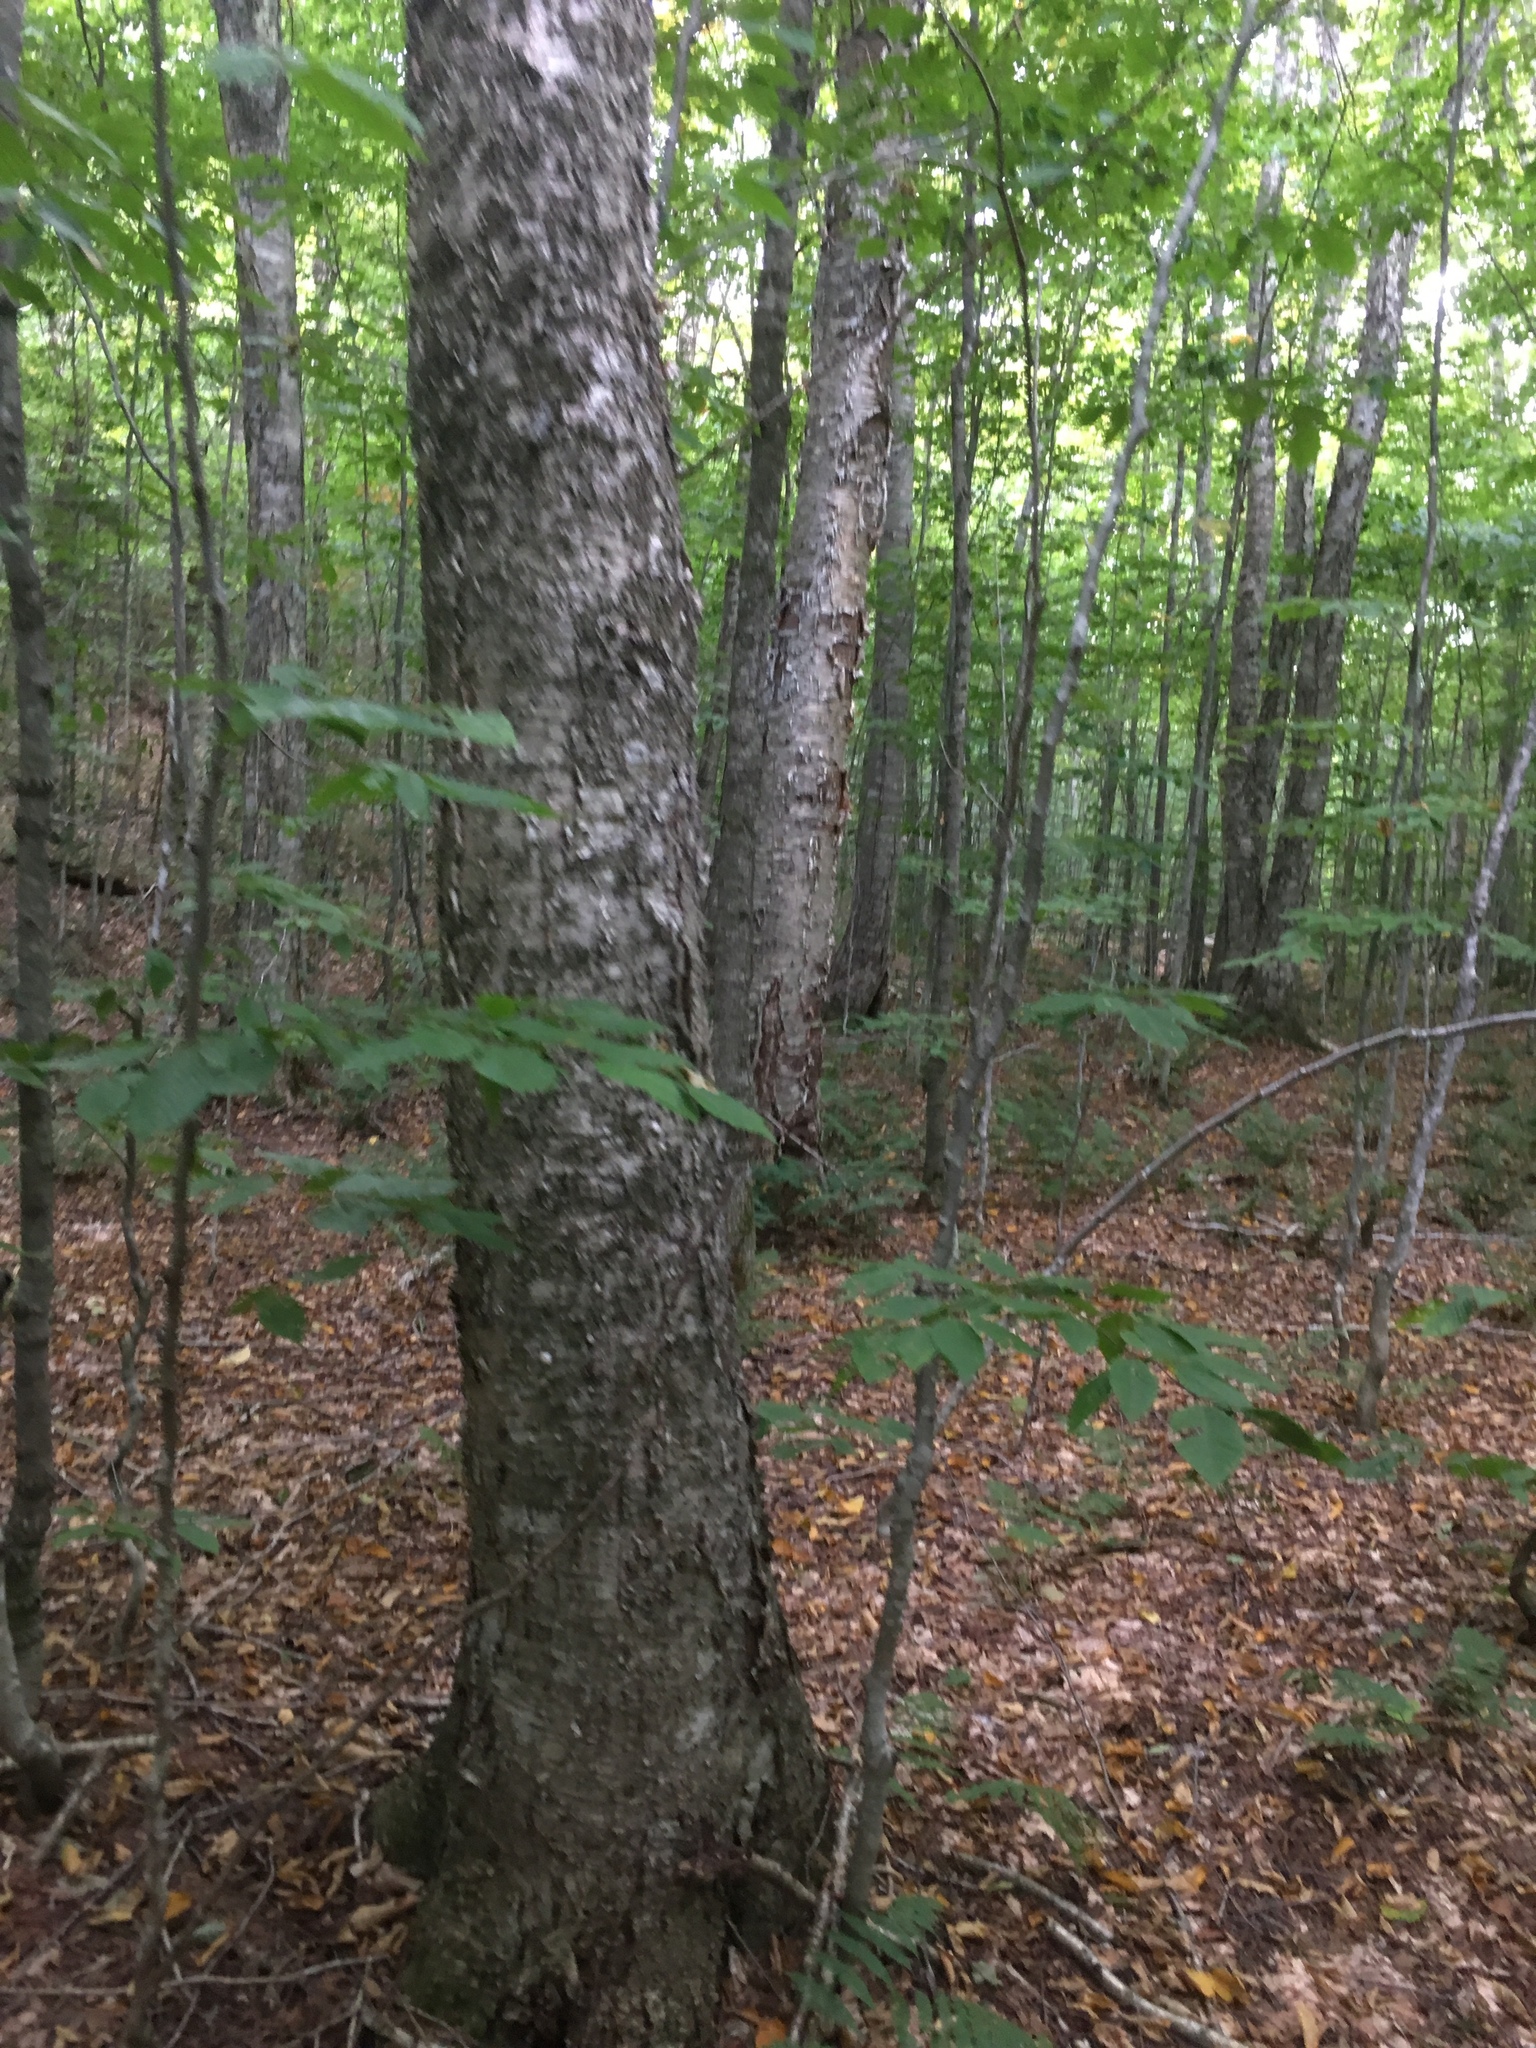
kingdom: Plantae
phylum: Tracheophyta
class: Magnoliopsida
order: Fagales
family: Betulaceae
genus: Betula
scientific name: Betula alleghaniensis
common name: Yellow birch
